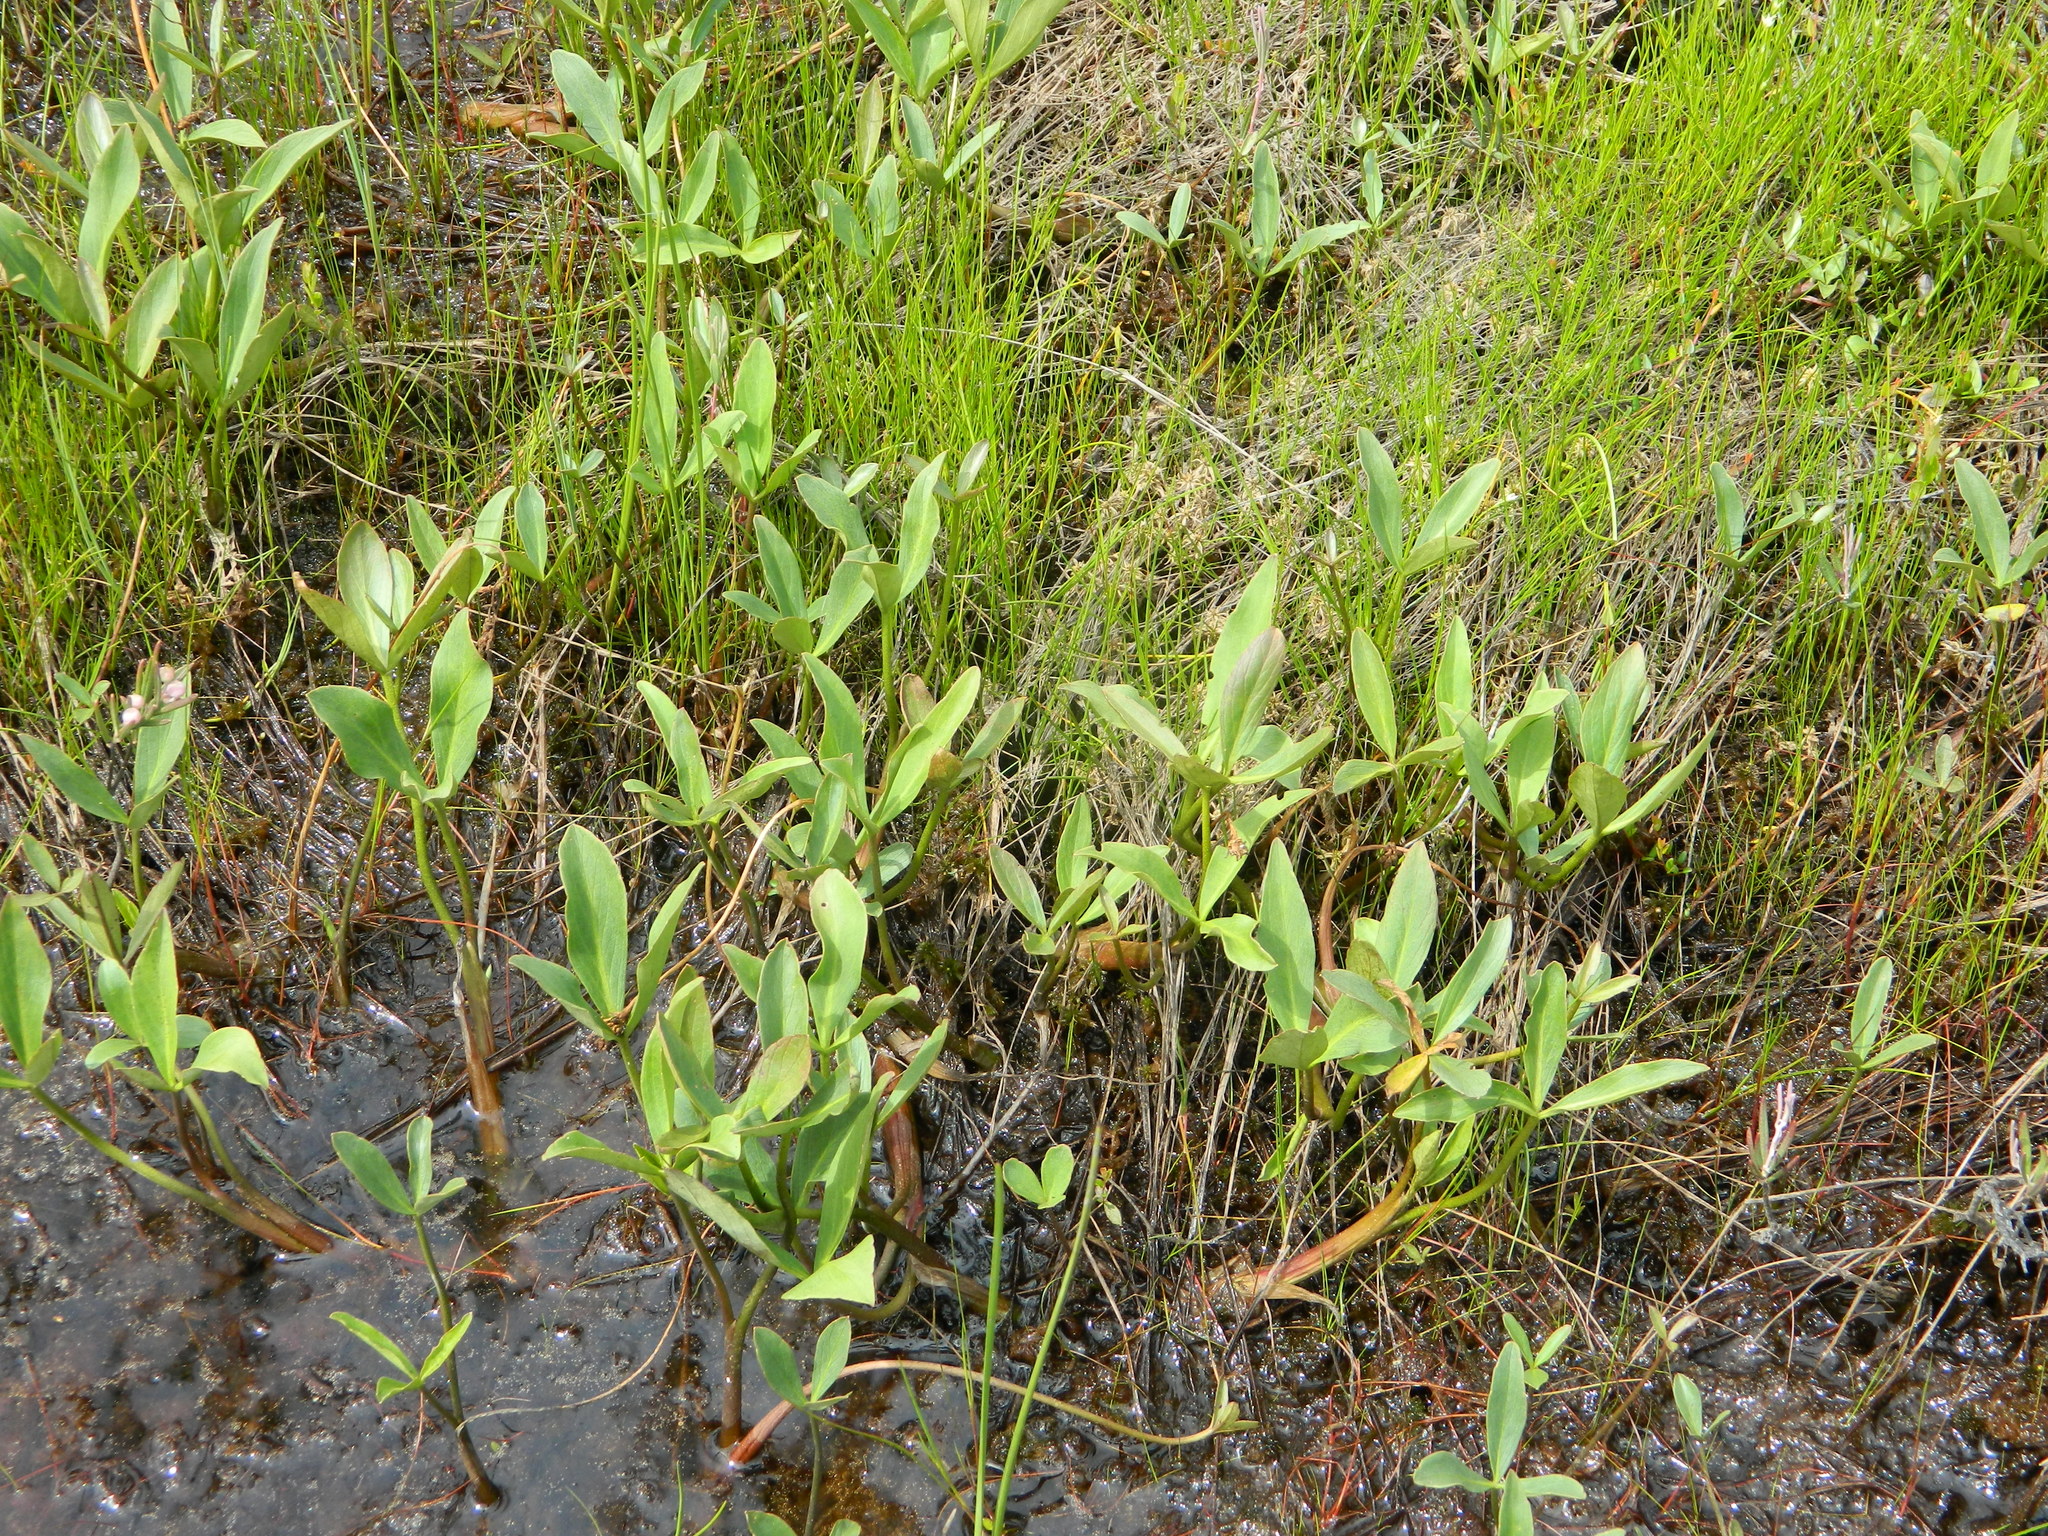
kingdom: Plantae
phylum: Tracheophyta
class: Magnoliopsida
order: Asterales
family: Menyanthaceae
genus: Menyanthes
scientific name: Menyanthes trifoliata
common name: Bogbean
